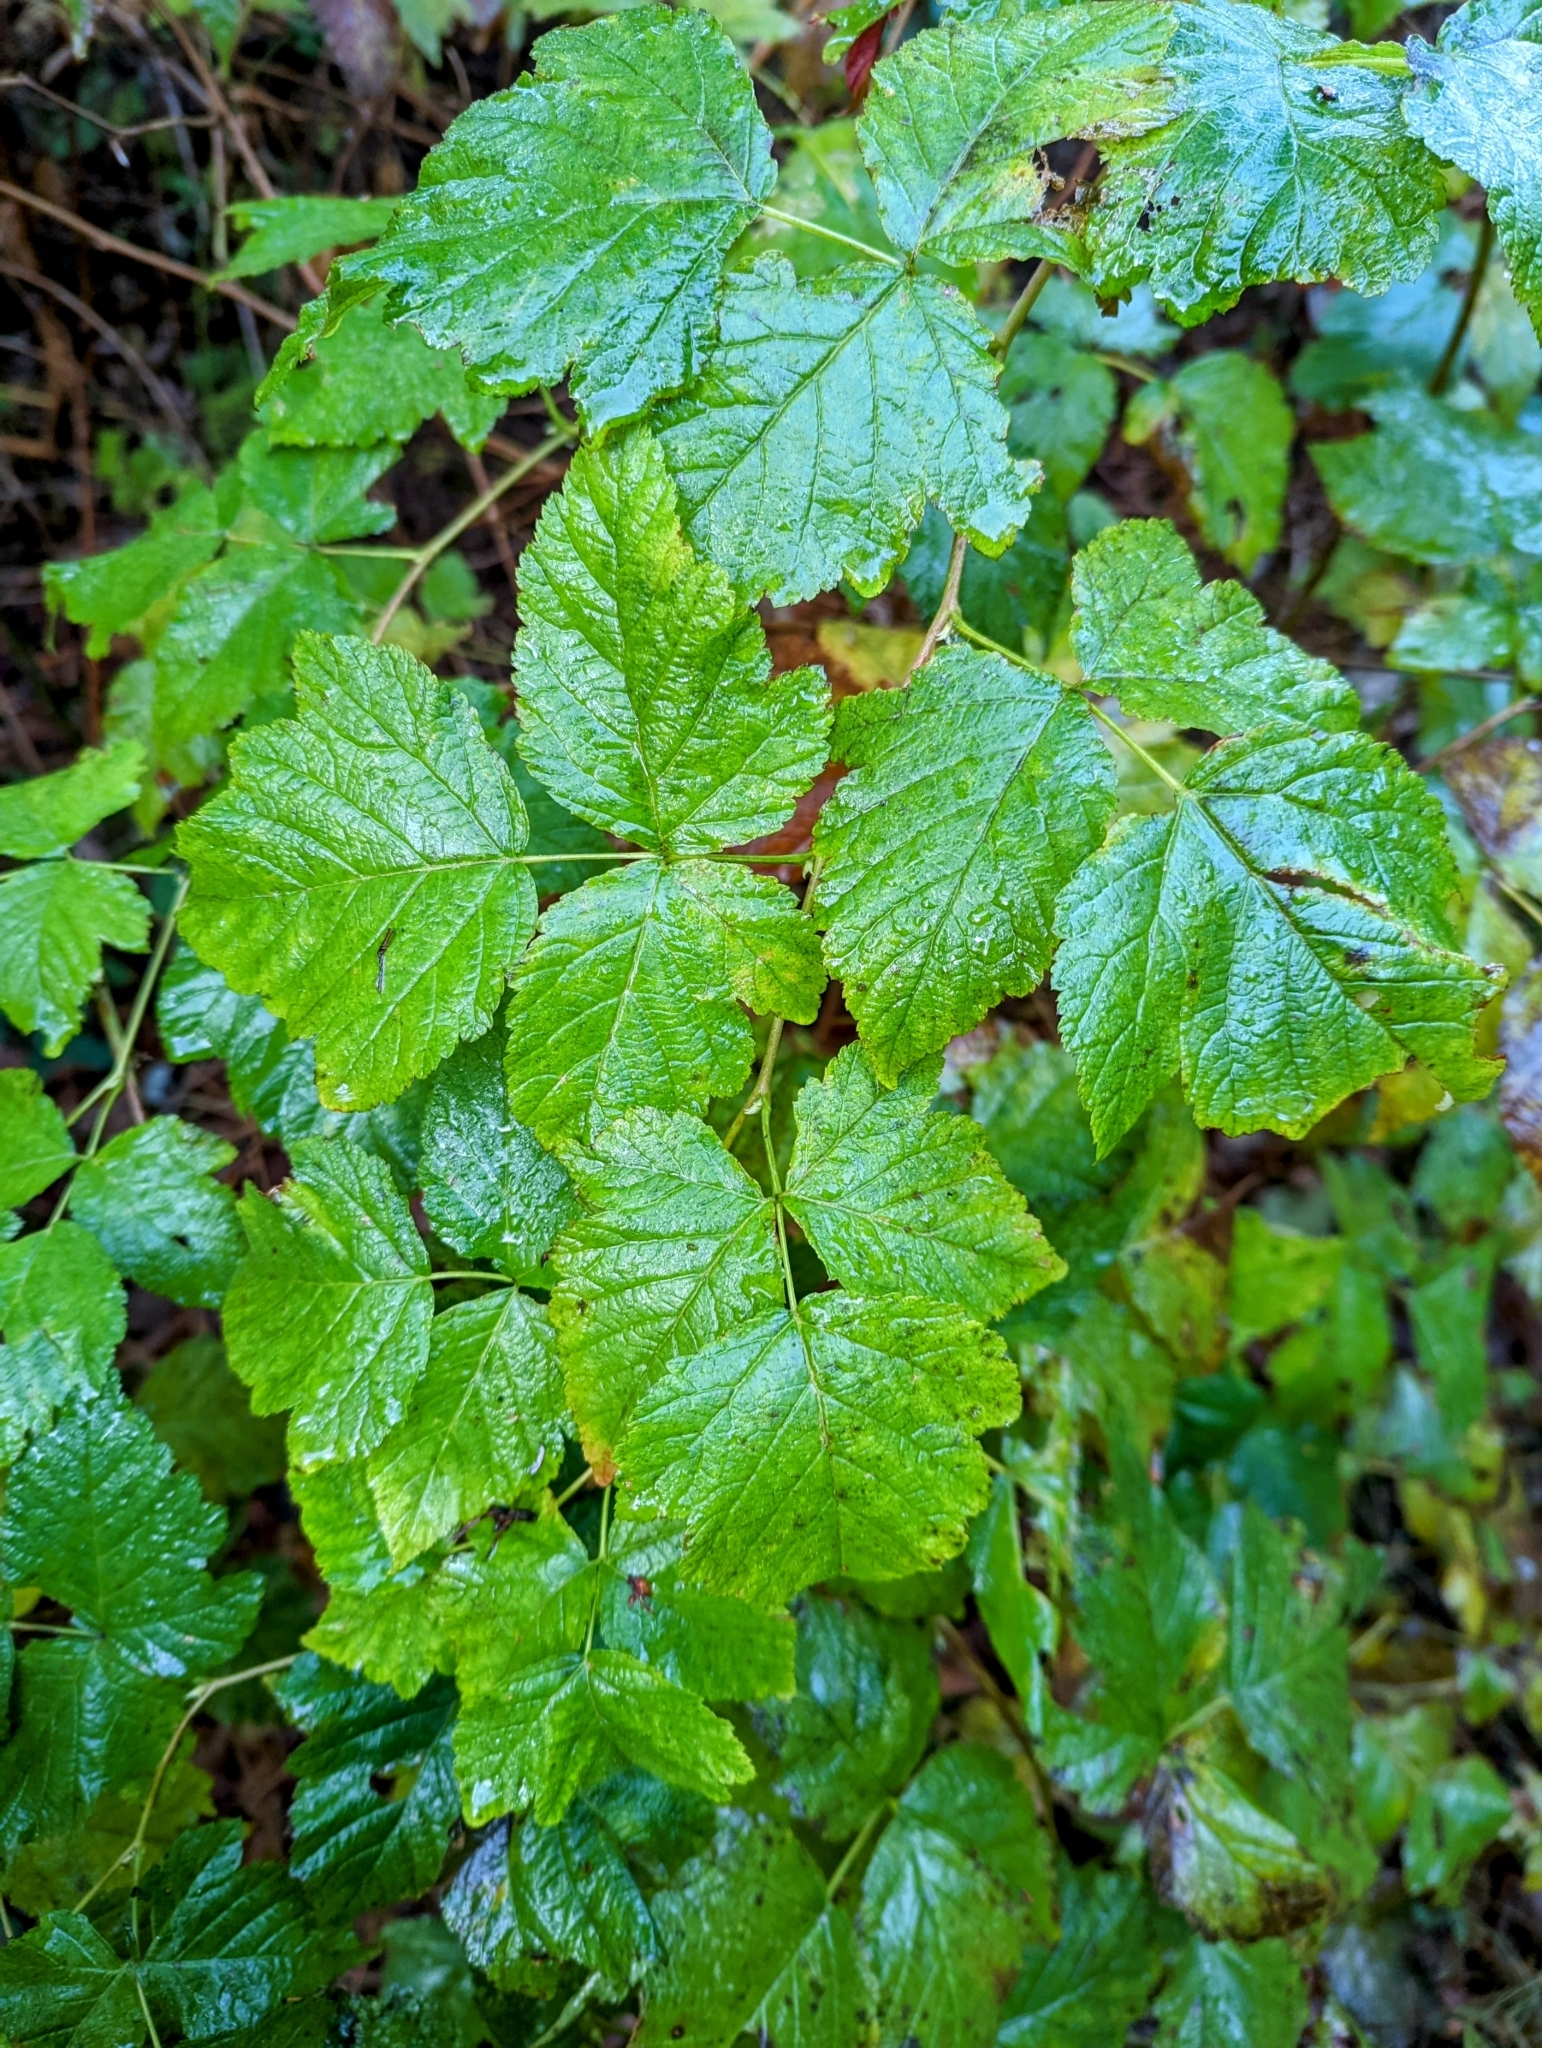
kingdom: Plantae
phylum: Tracheophyta
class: Magnoliopsida
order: Rosales
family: Rosaceae
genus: Rubus
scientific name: Rubus spectabilis
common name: Salmonberry
